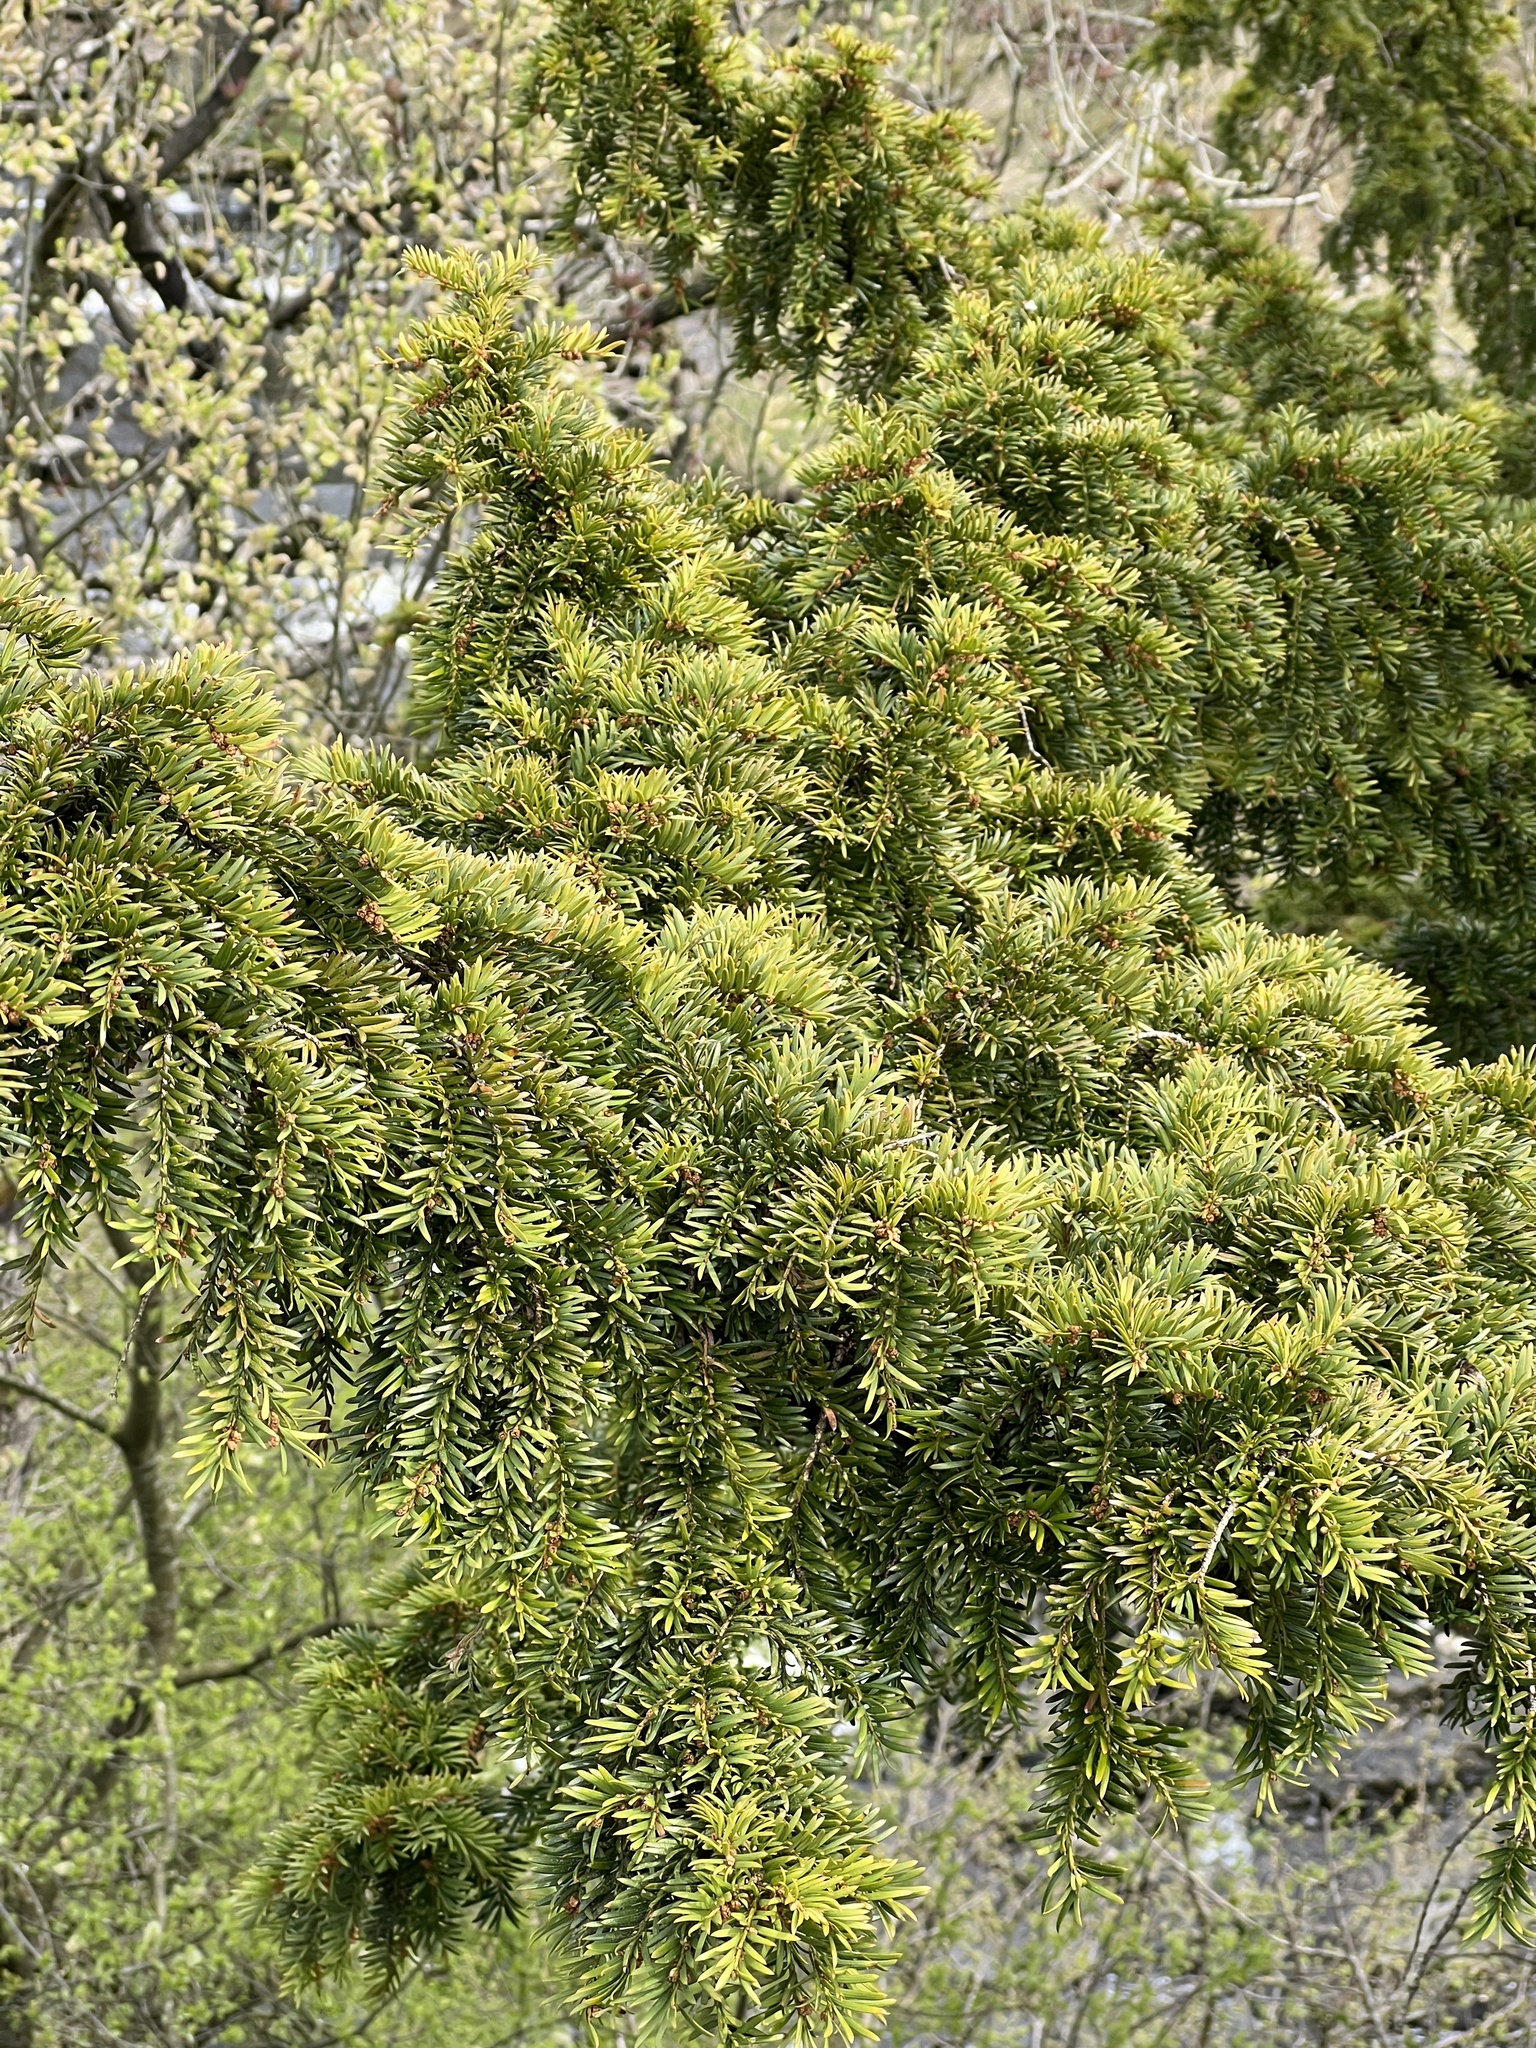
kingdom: Plantae
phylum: Tracheophyta
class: Pinopsida
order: Pinales
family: Taxaceae
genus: Taxus
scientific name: Taxus baccata
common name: Yew
